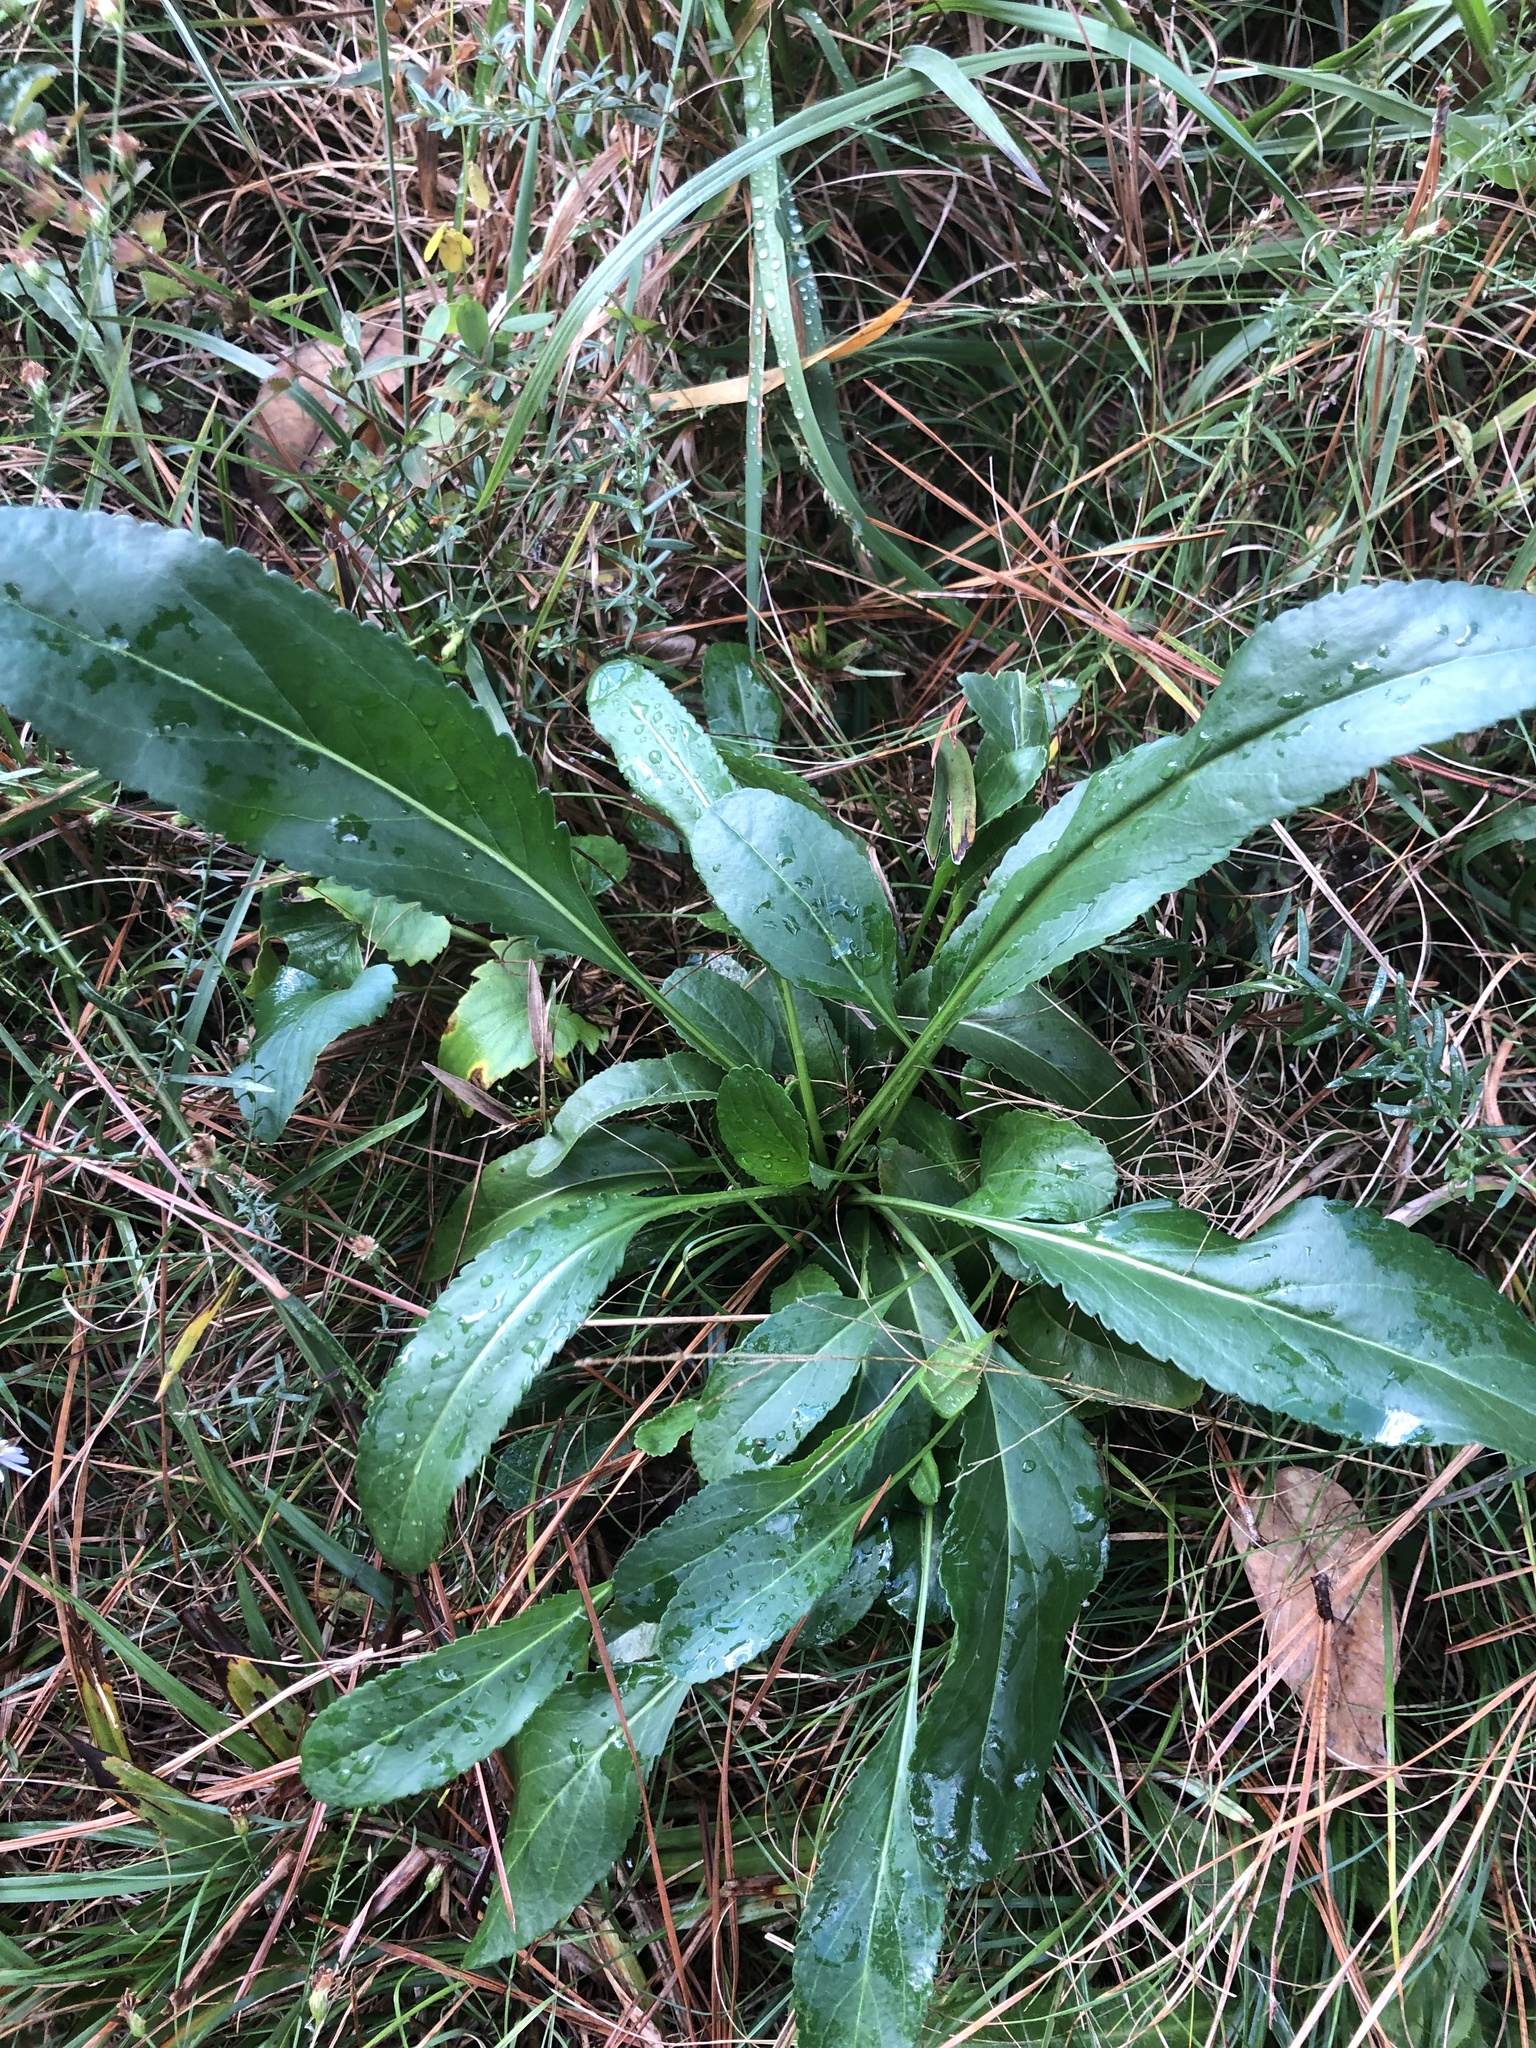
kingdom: Plantae
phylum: Tracheophyta
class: Magnoliopsida
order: Asterales
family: Asteraceae
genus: Packera
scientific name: Packera anonyma
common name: Small ragwort
